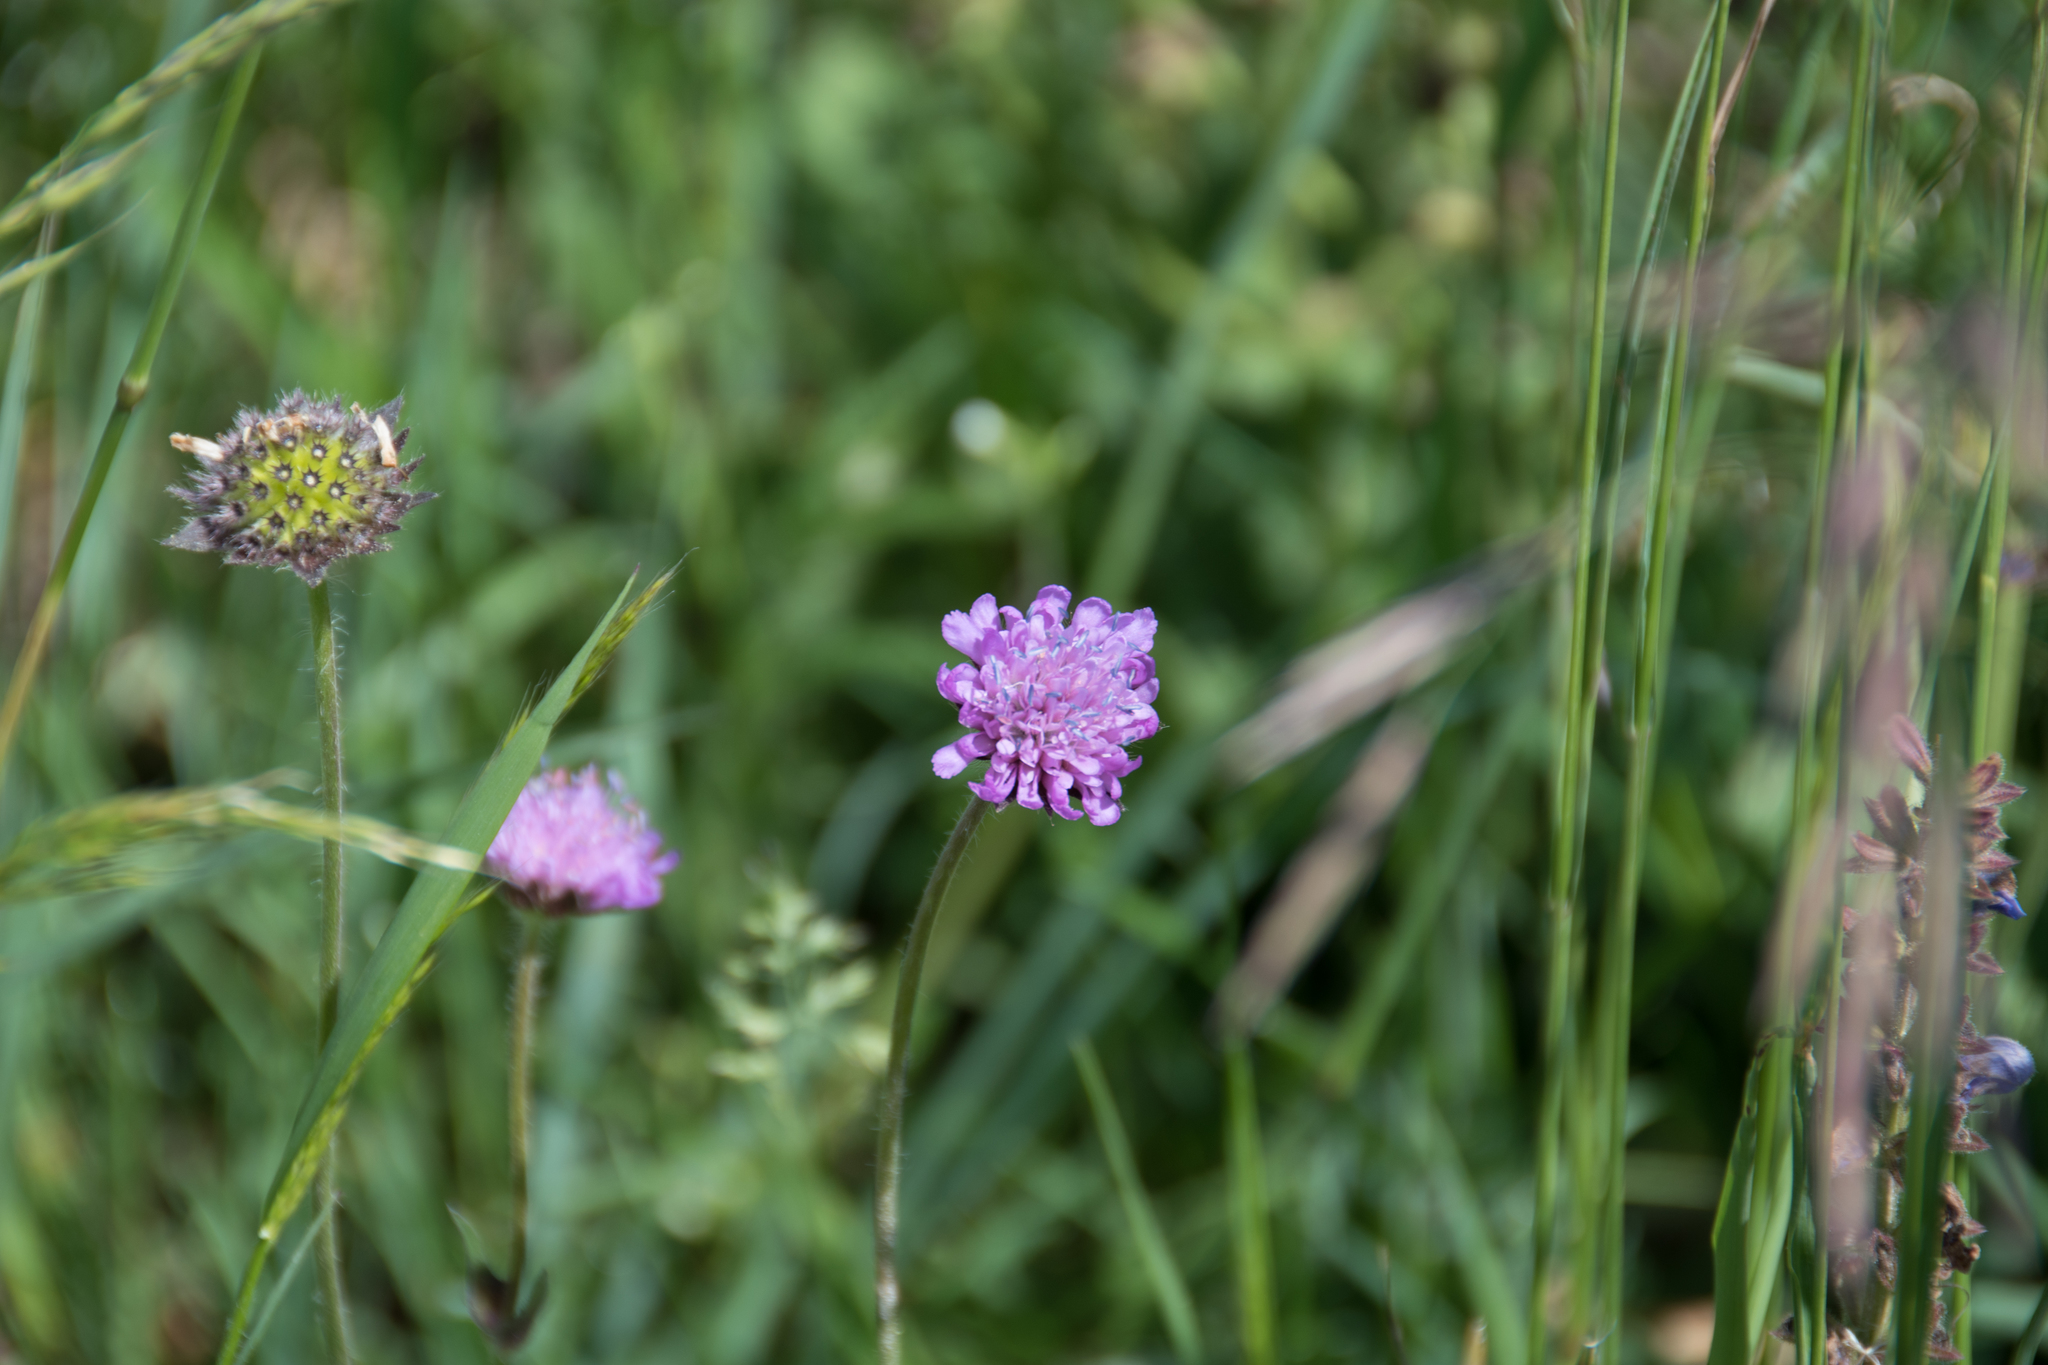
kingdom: Plantae
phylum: Tracheophyta
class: Magnoliopsida
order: Dipsacales
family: Caprifoliaceae
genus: Knautia
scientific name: Knautia arvensis
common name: Field scabiosa
